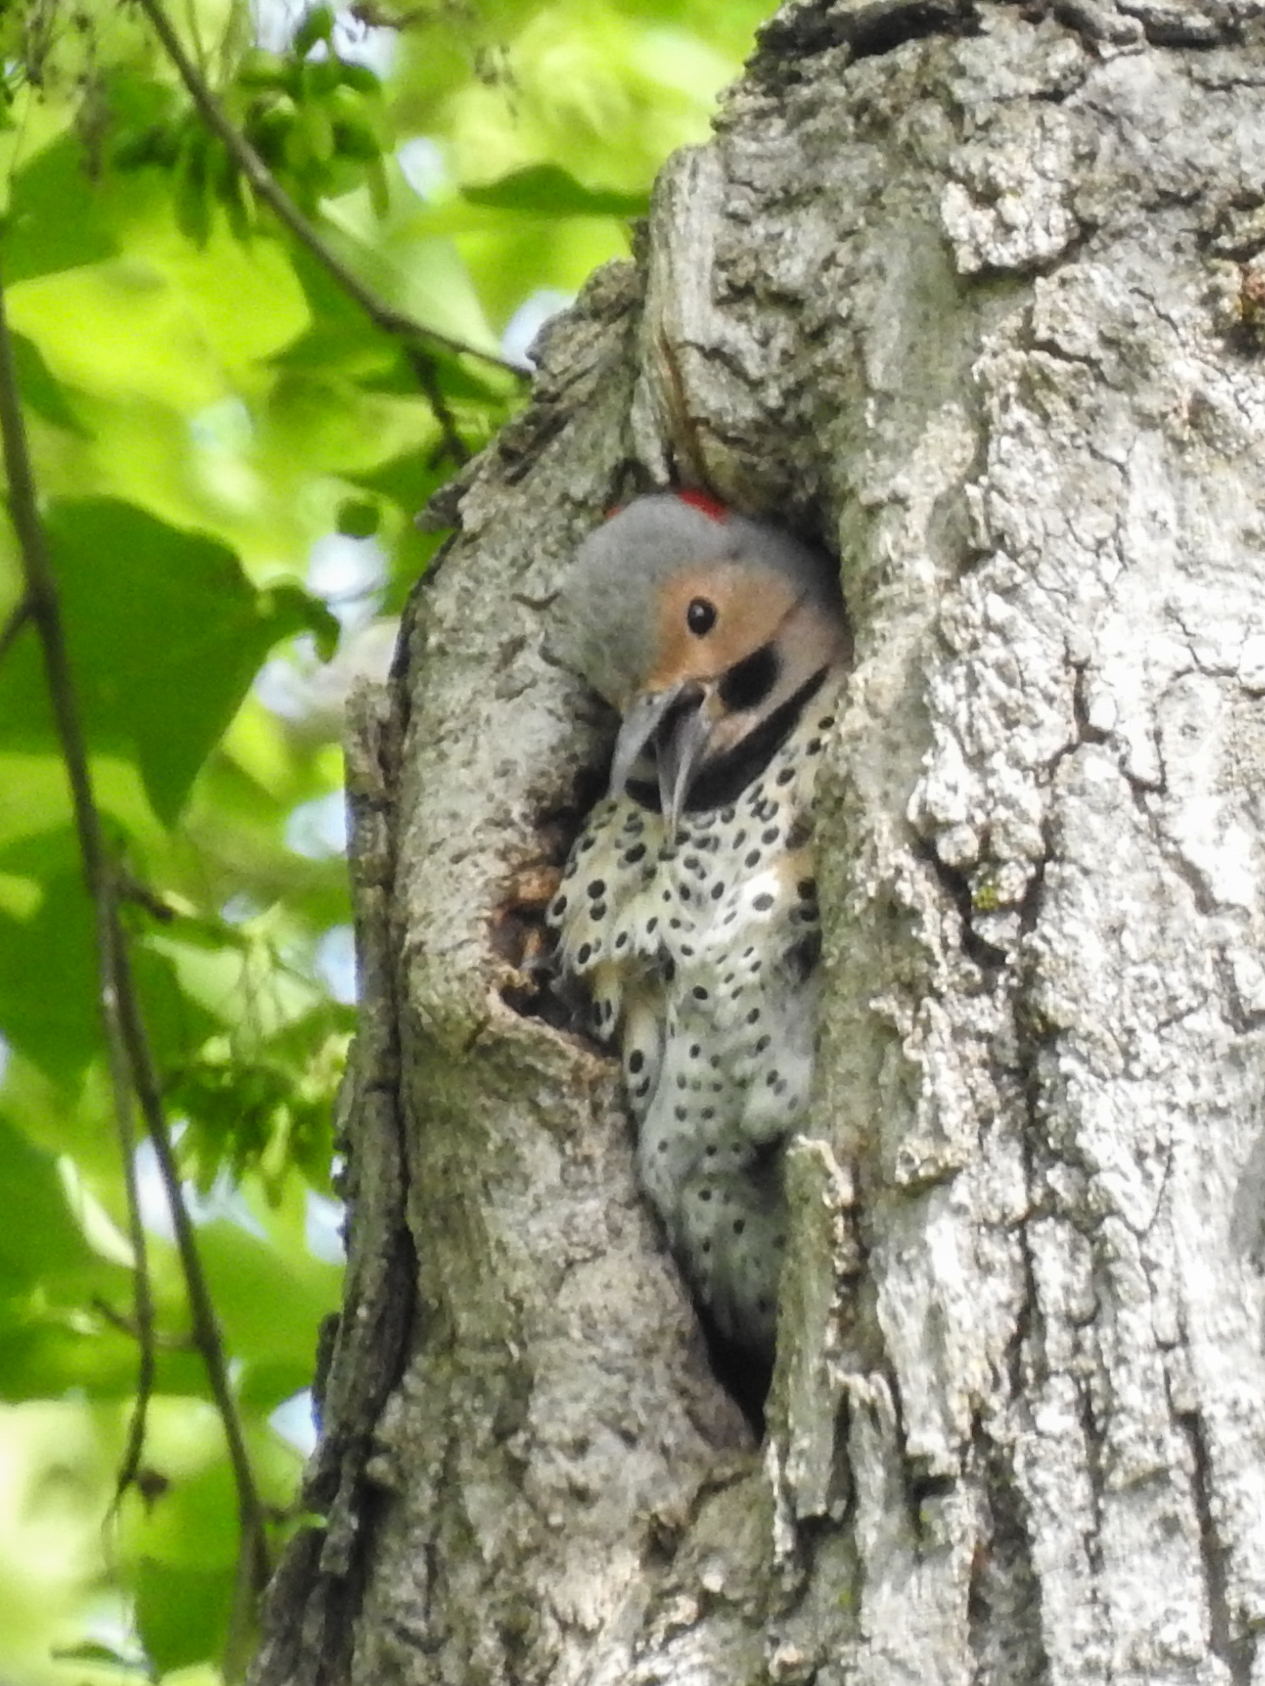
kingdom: Animalia
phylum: Chordata
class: Aves
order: Piciformes
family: Picidae
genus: Colaptes
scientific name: Colaptes auratus
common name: Northern flicker
